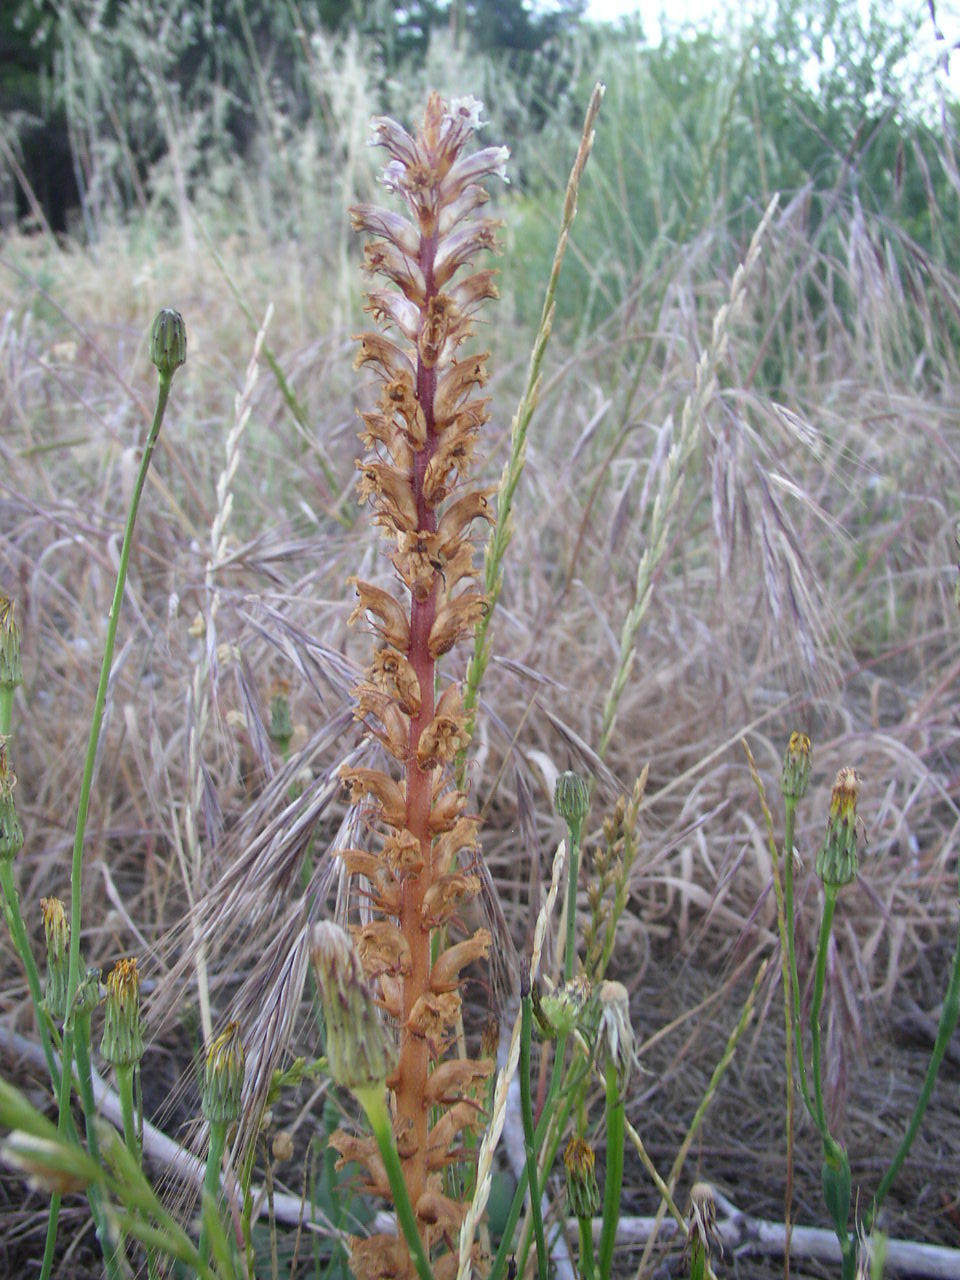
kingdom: Plantae
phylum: Tracheophyta
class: Magnoliopsida
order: Lamiales
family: Orobanchaceae
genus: Orobanche
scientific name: Orobanche minor
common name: Common broomrape
